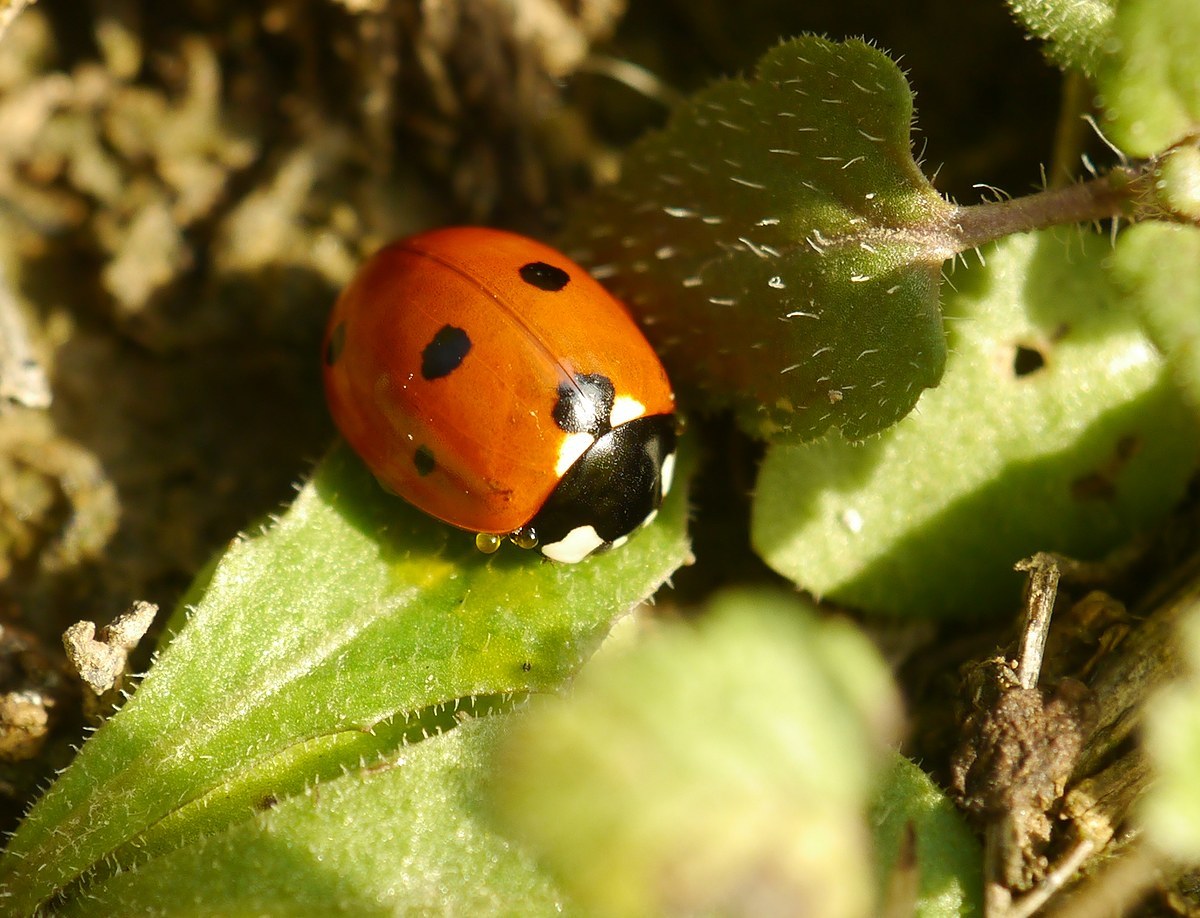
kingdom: Animalia
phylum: Arthropoda
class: Insecta
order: Coleoptera
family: Coccinellidae
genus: Coccinella
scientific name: Coccinella septempunctata
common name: Sevenspotted lady beetle
